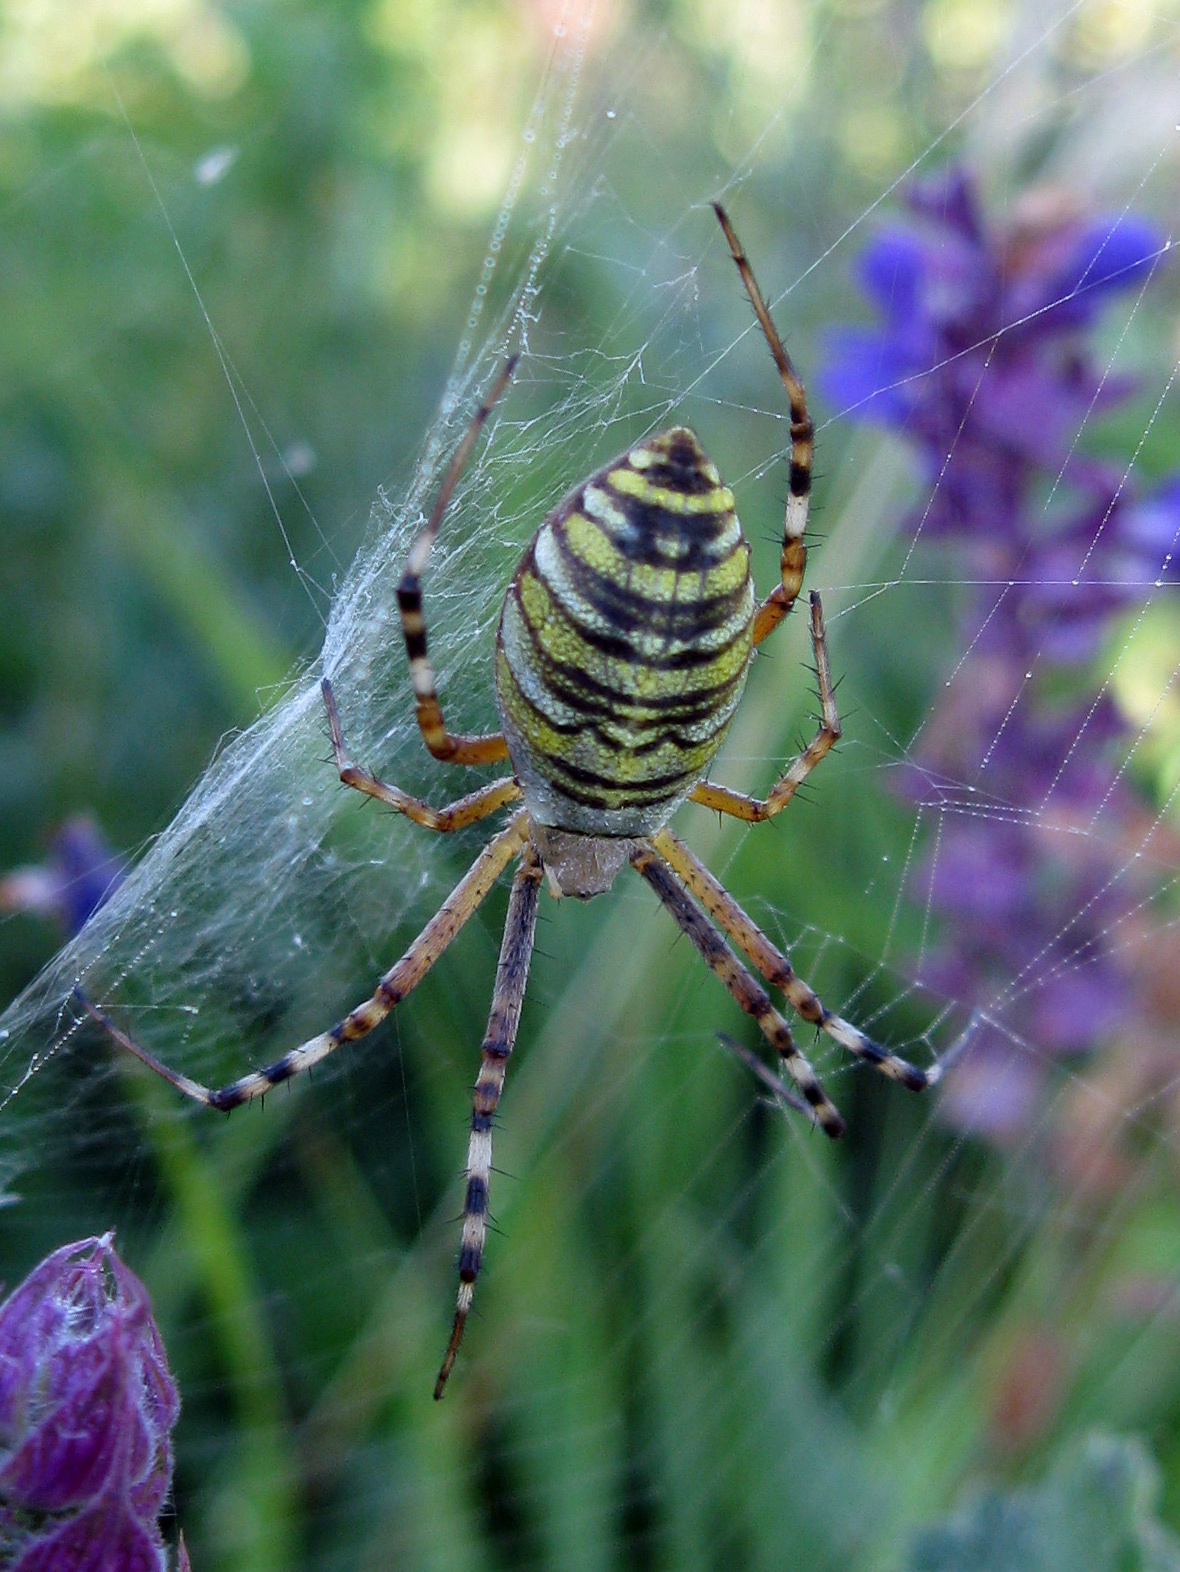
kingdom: Animalia
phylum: Arthropoda
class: Arachnida
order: Araneae
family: Araneidae
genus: Argiope
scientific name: Argiope bruennichi
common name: Wasp spider
